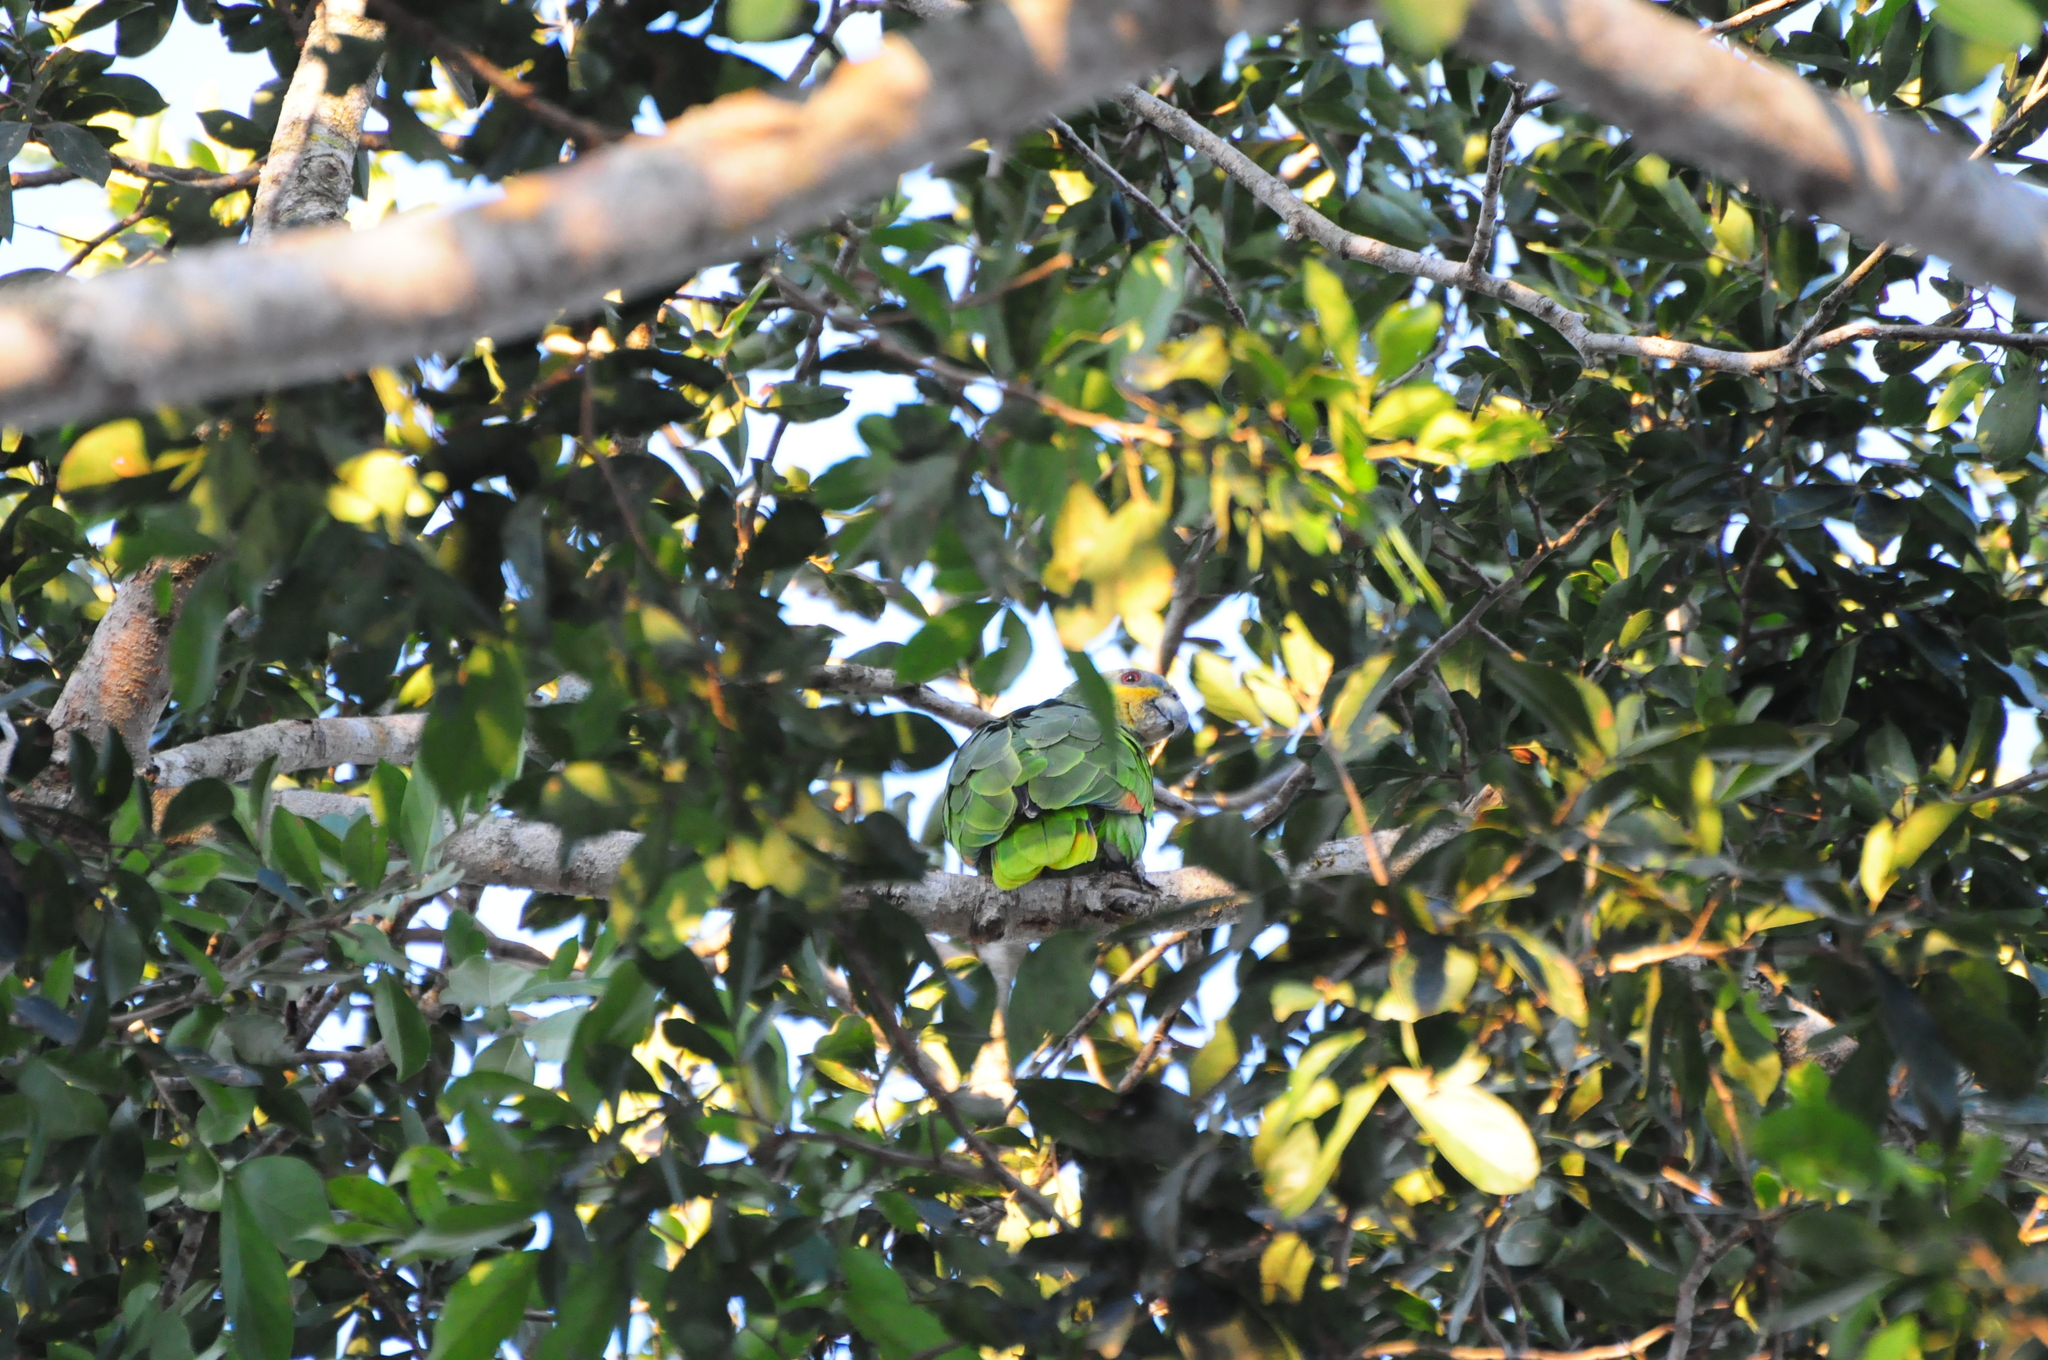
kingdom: Animalia
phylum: Chordata
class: Aves
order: Psittaciformes
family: Psittacidae
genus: Amazona
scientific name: Amazona amazonica
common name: Orange-winged amazon
